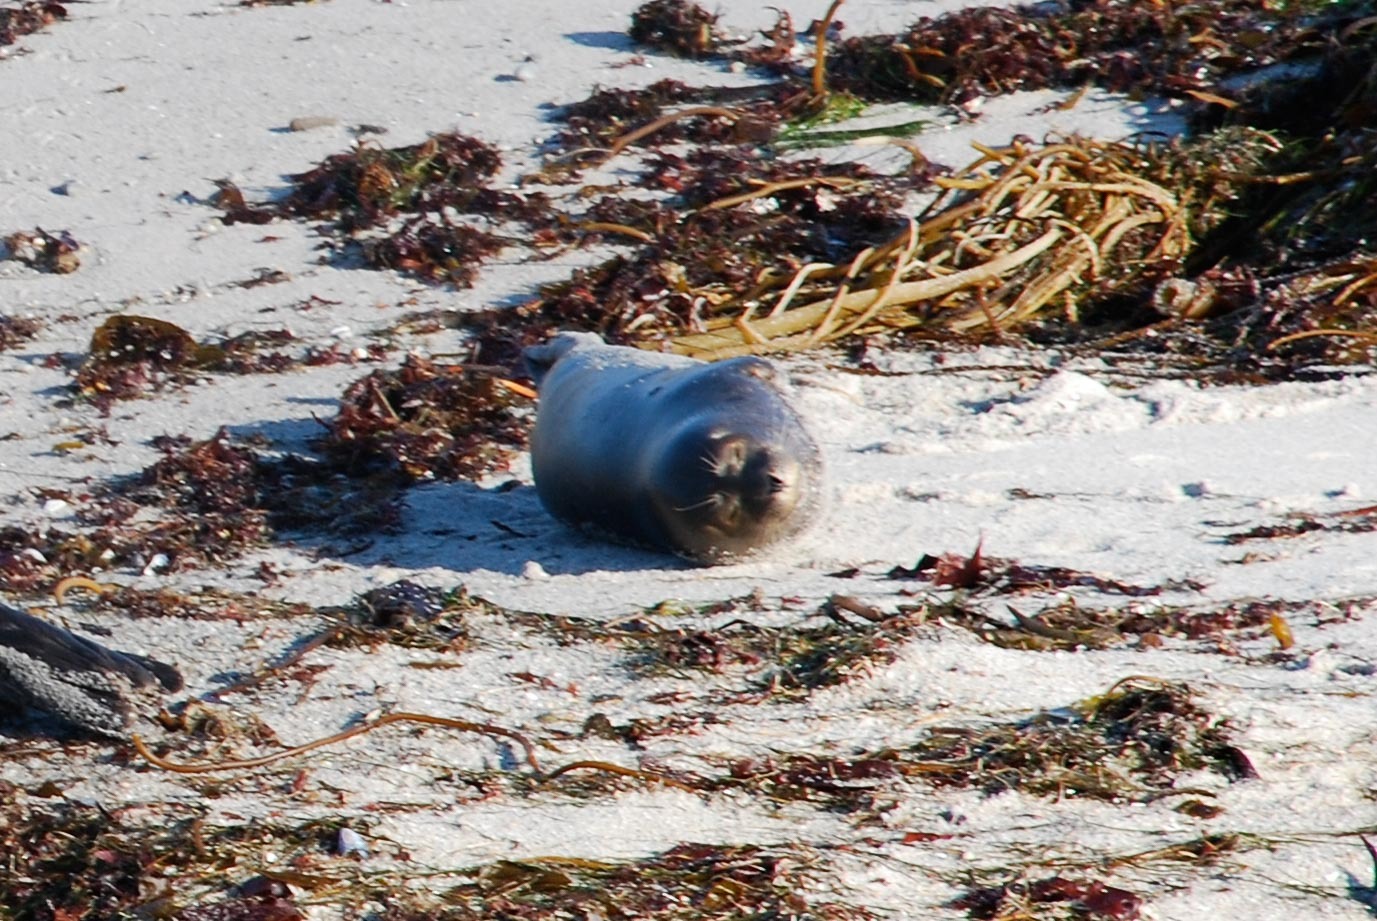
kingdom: Animalia
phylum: Chordata
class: Mammalia
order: Carnivora
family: Phocidae
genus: Phoca
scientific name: Phoca vitulina
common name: Harbor seal
